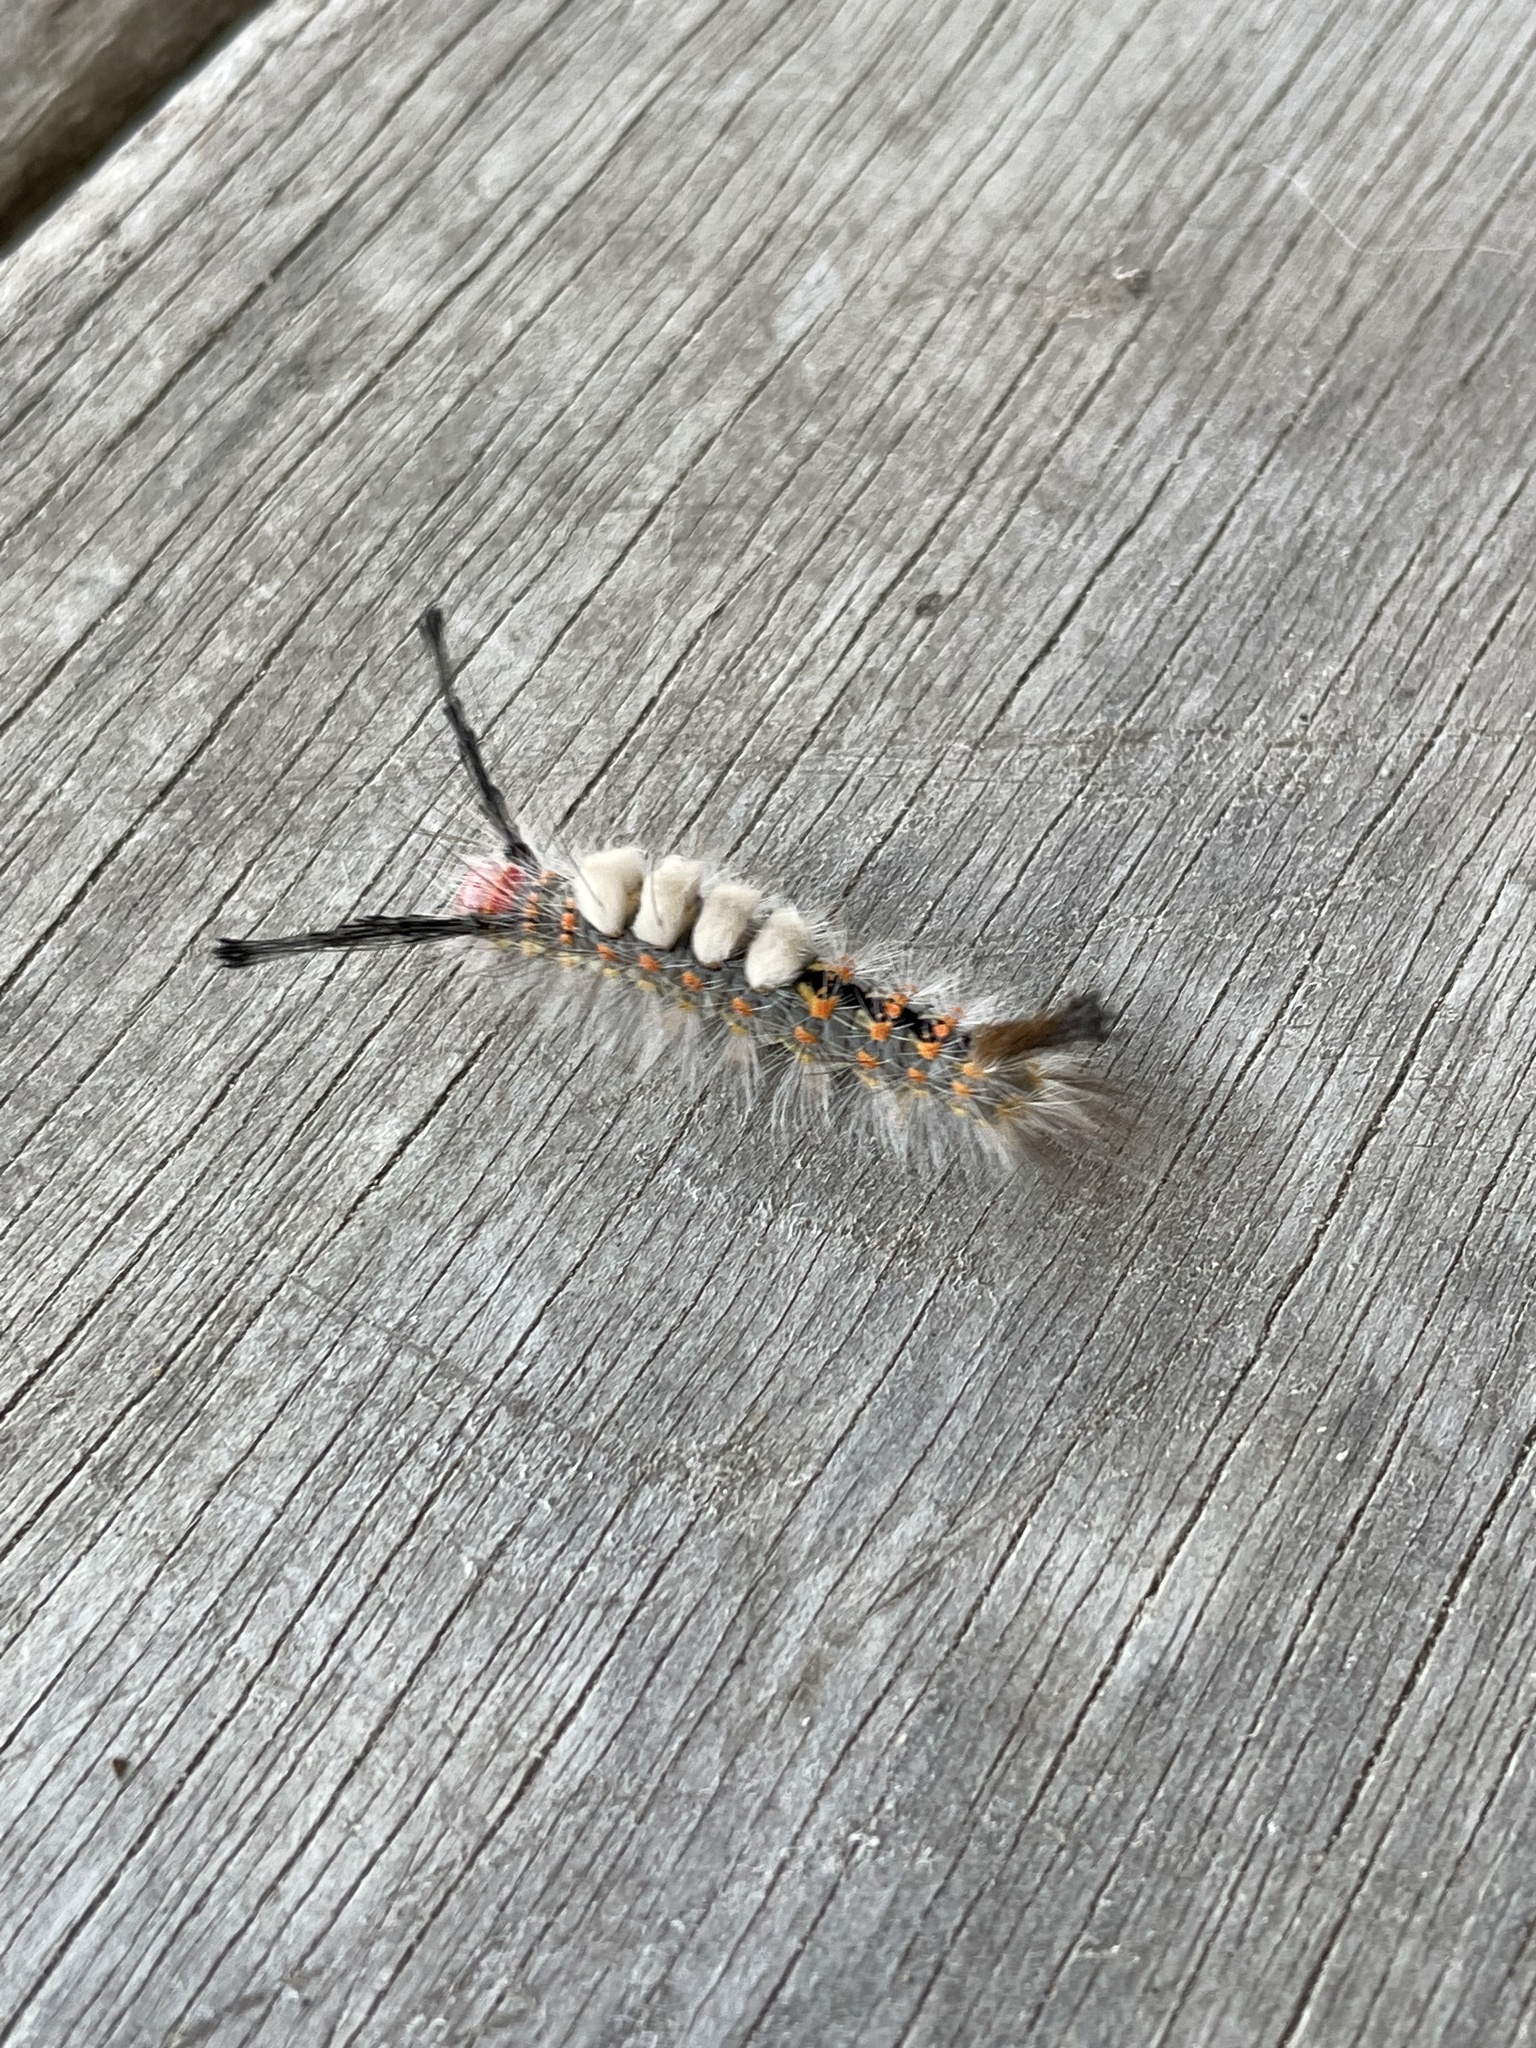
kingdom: Animalia
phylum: Arthropoda
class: Insecta
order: Lepidoptera
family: Erebidae
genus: Orgyia
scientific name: Orgyia detrita
